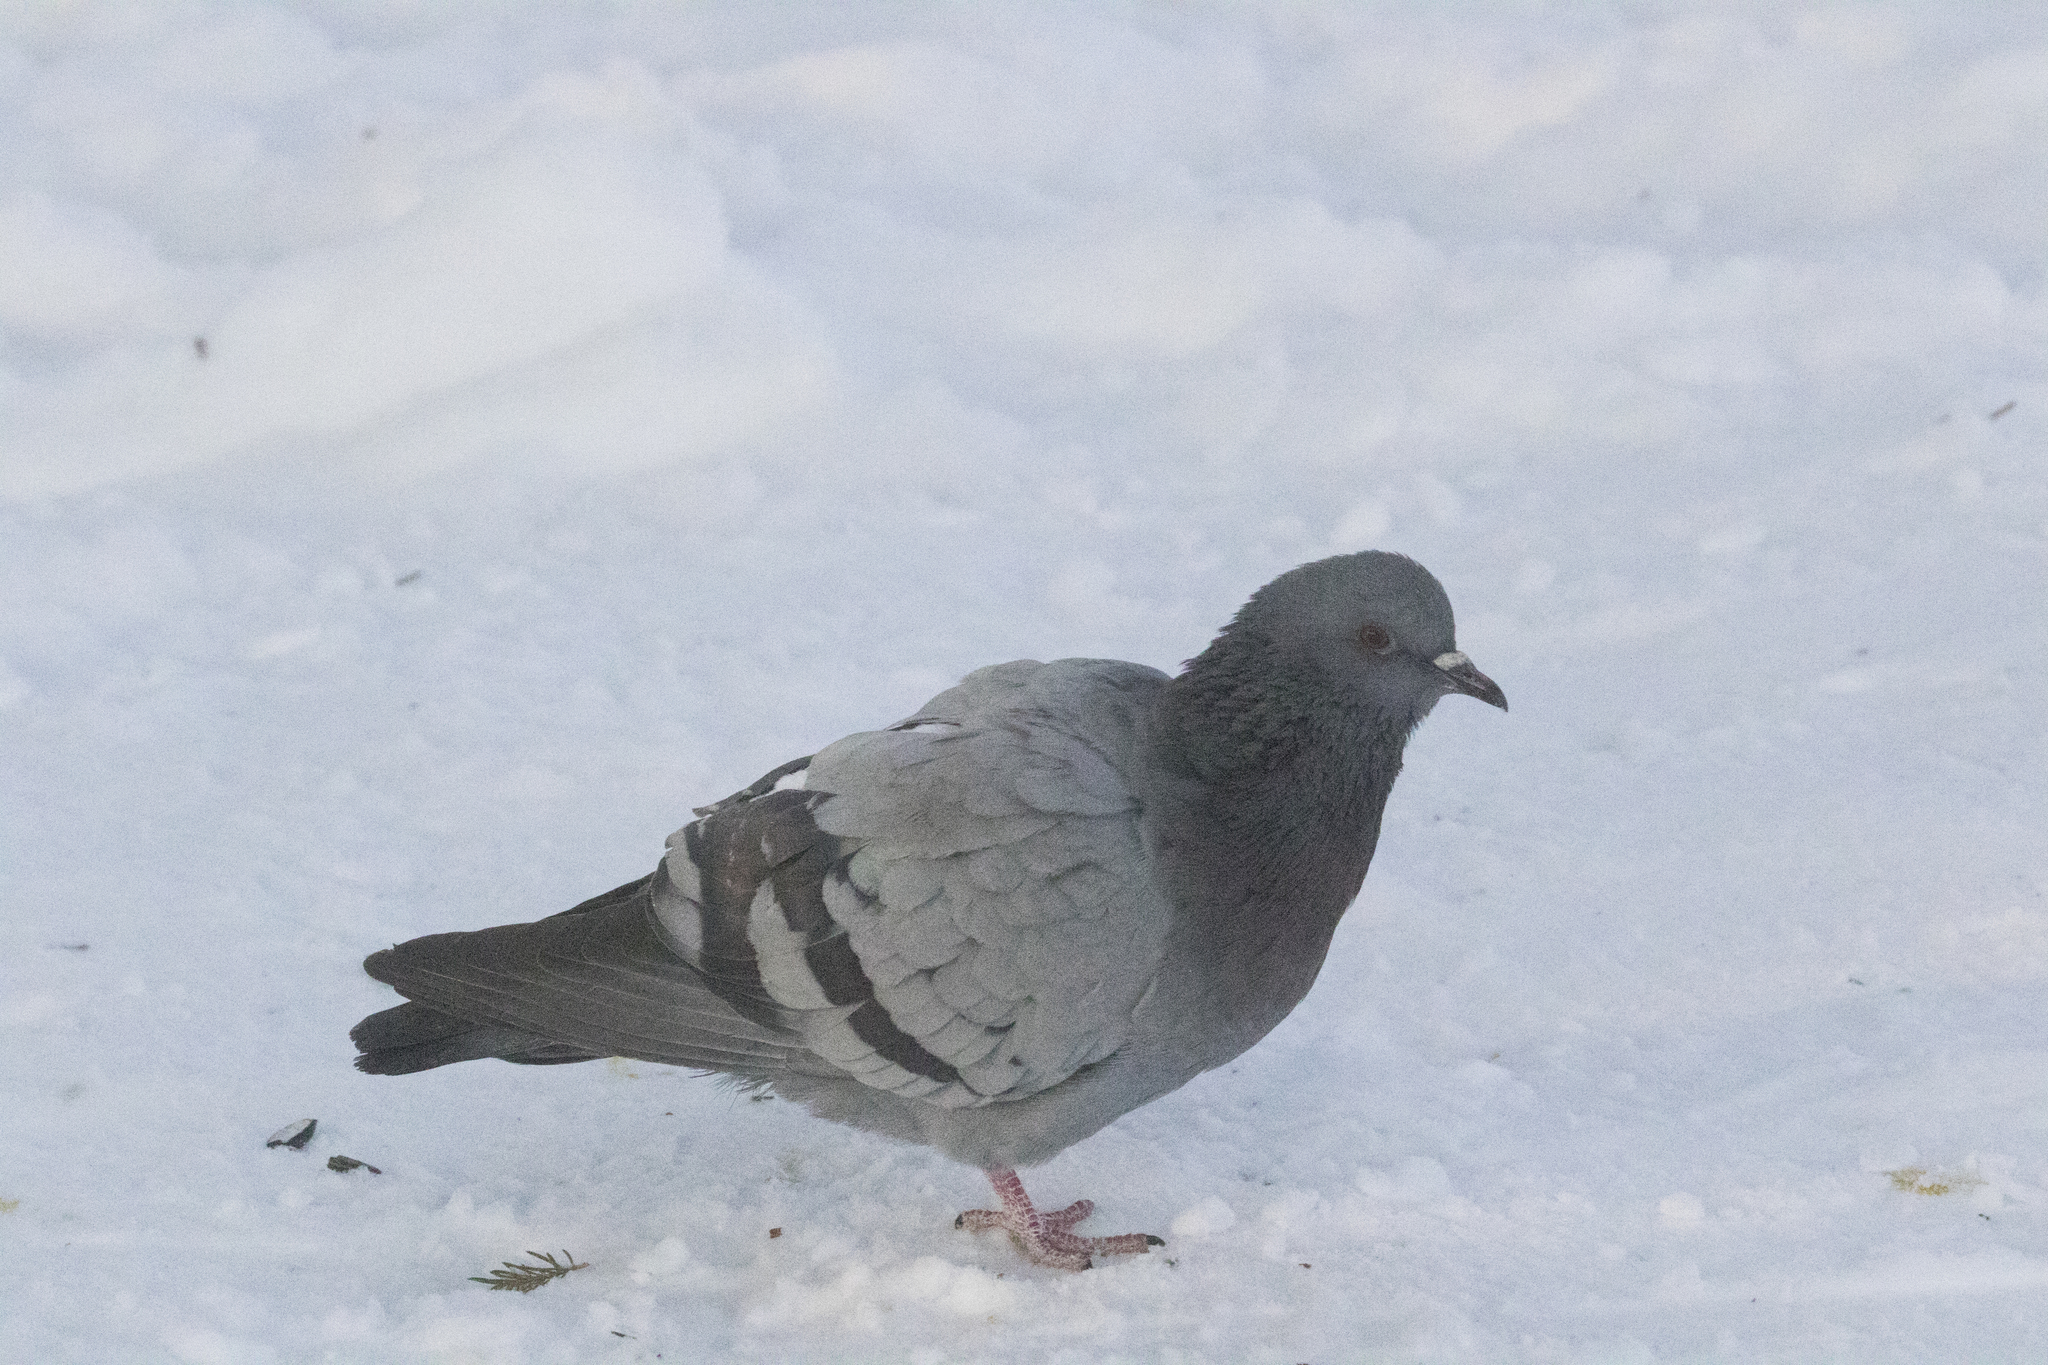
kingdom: Animalia
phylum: Chordata
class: Aves
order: Columbiformes
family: Columbidae
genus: Columba
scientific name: Columba livia
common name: Rock pigeon
